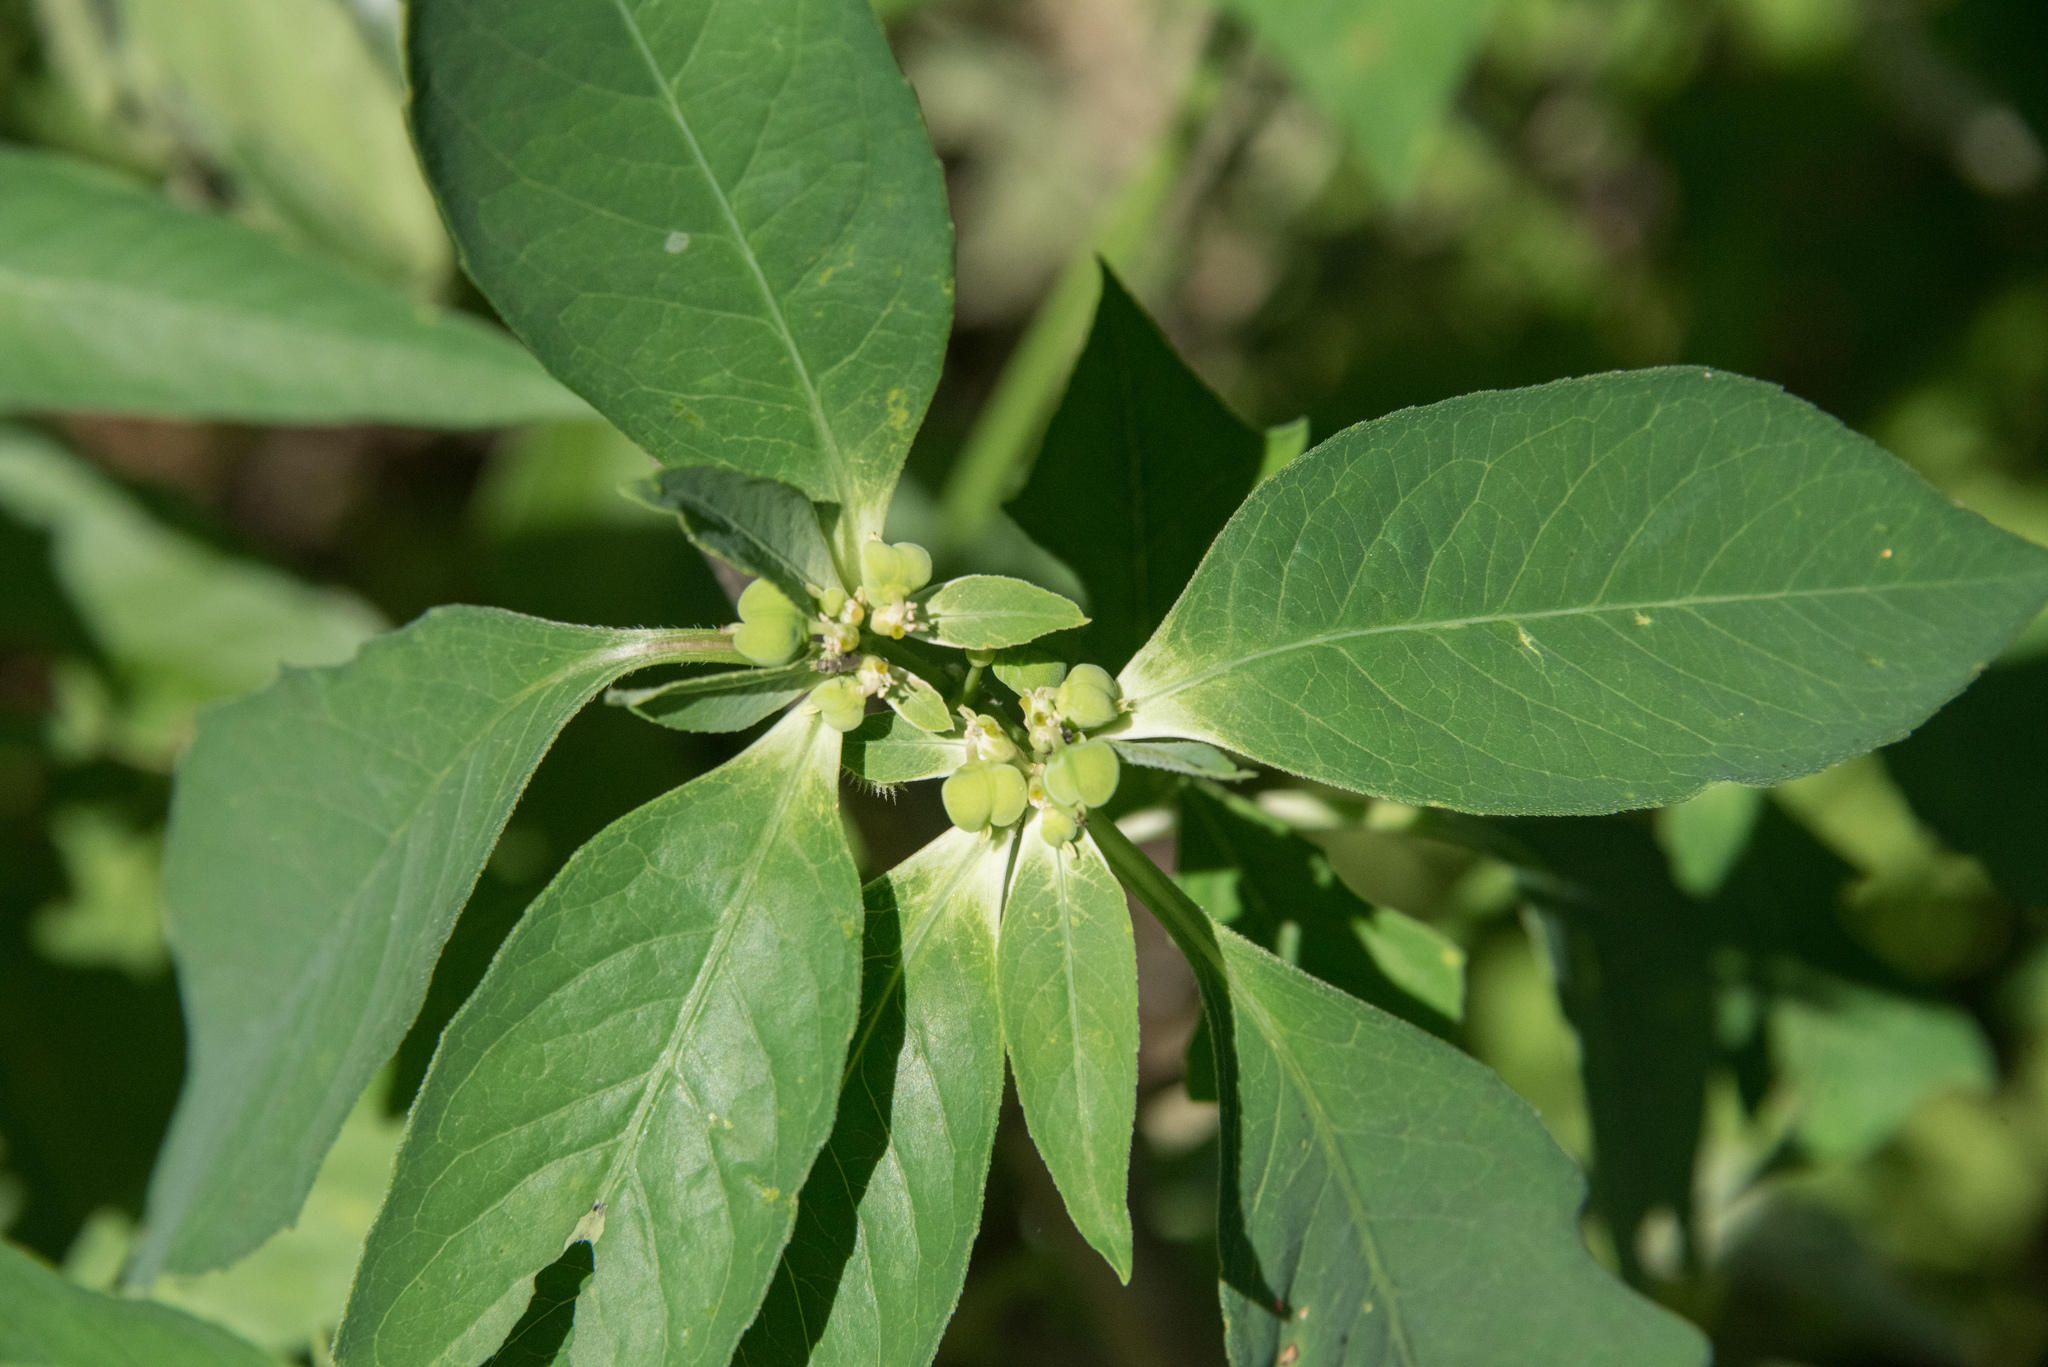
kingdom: Plantae
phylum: Tracheophyta
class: Magnoliopsida
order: Malpighiales
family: Euphorbiaceae
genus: Euphorbia
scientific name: Euphorbia heterophylla
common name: Mexican fireplant
